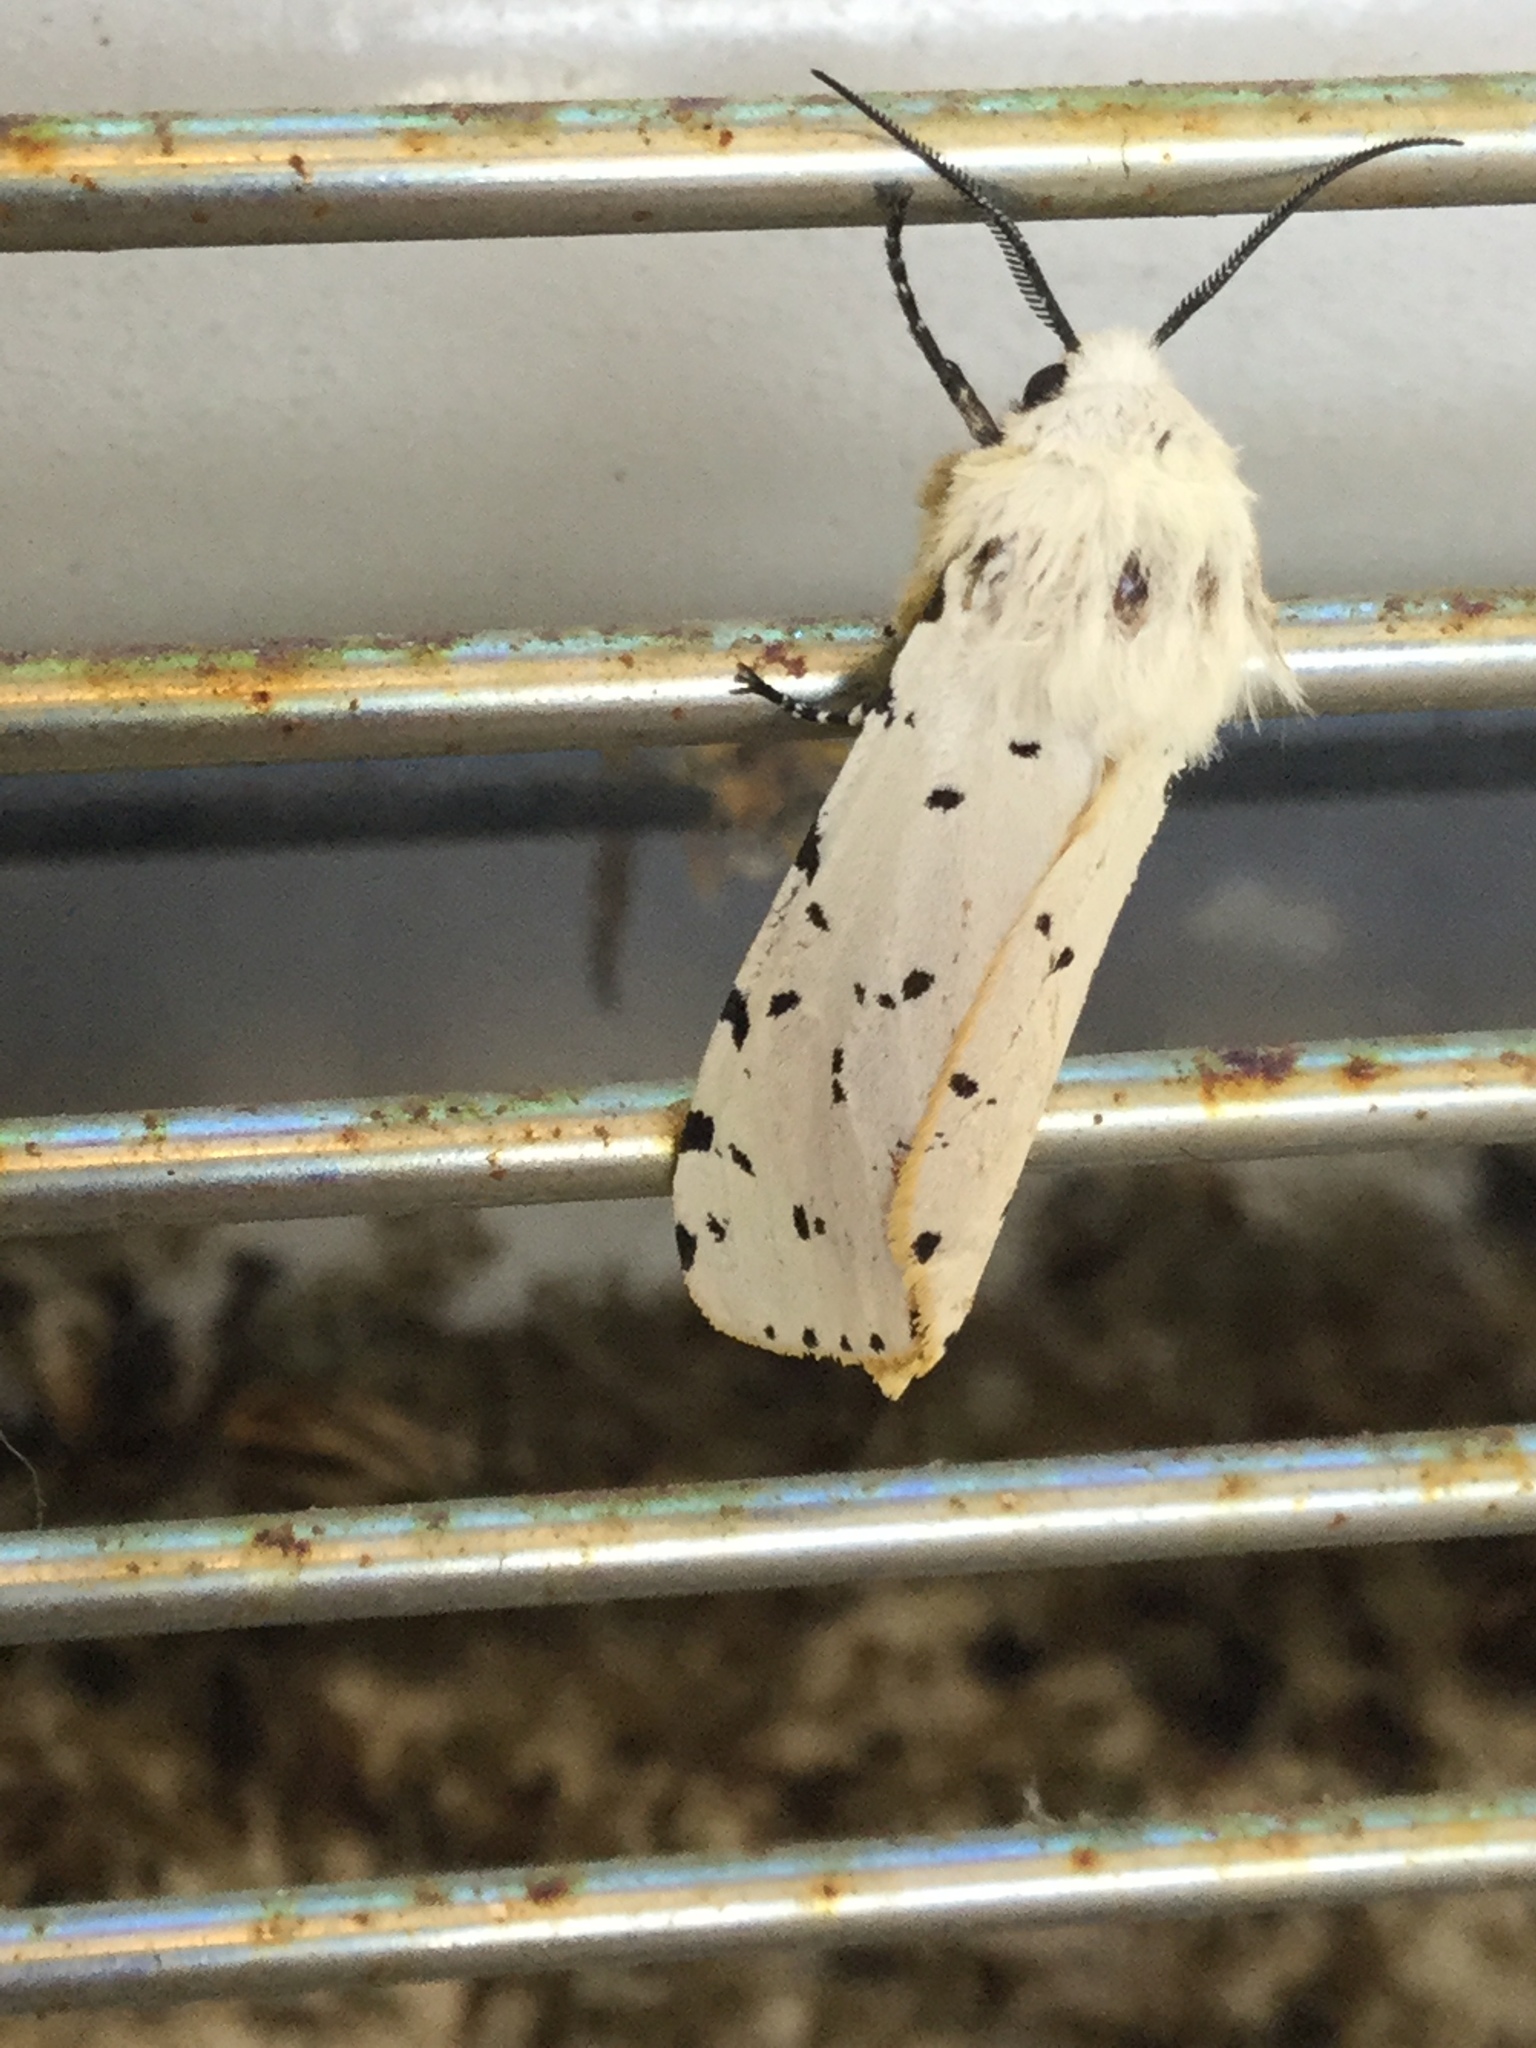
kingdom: Animalia
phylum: Arthropoda
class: Insecta
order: Lepidoptera
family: Erebidae
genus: Estigmene
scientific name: Estigmene acrea
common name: Salt marsh moth
